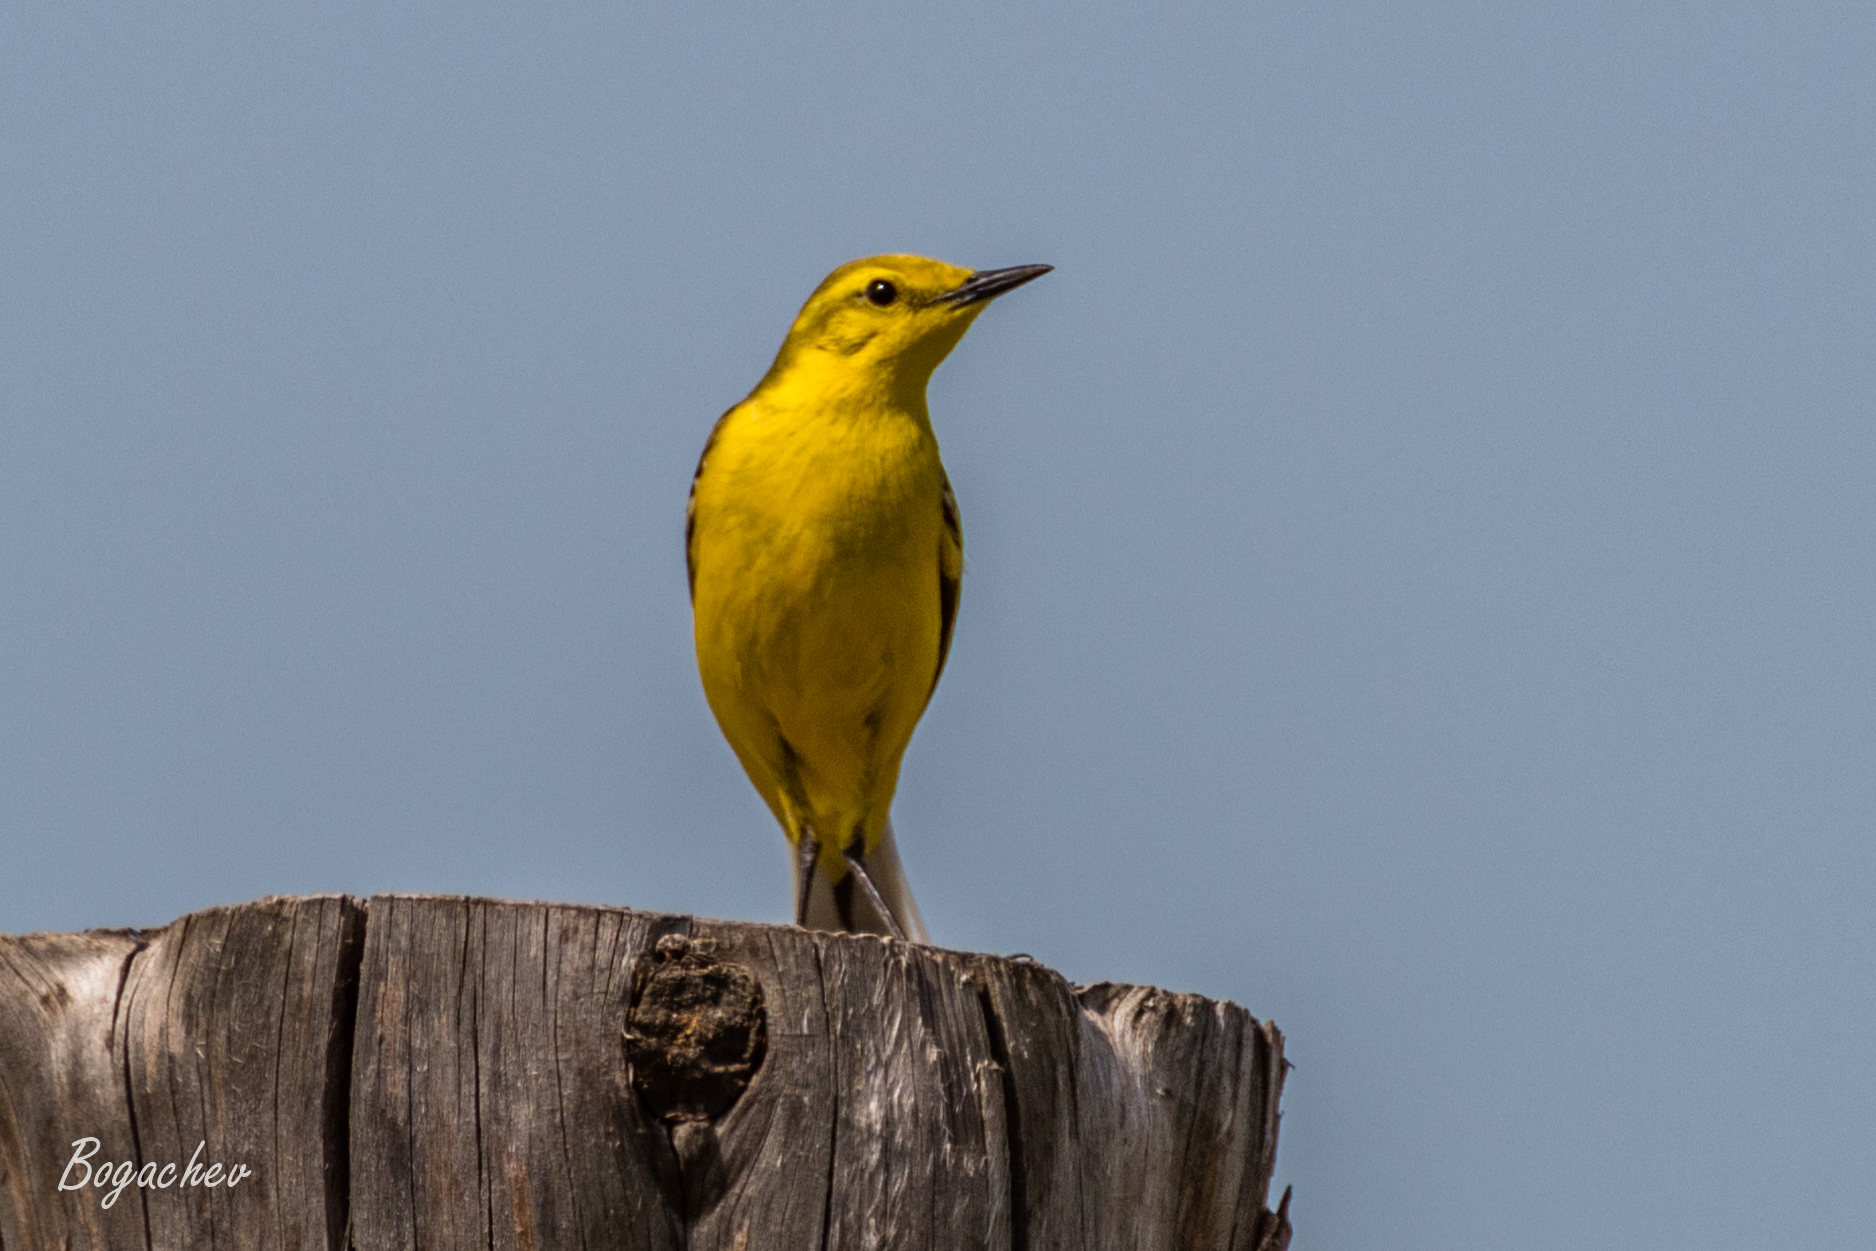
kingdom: Animalia
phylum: Chordata
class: Aves
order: Passeriformes
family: Motacillidae
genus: Motacilla
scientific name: Motacilla flava
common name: Western yellow wagtail
